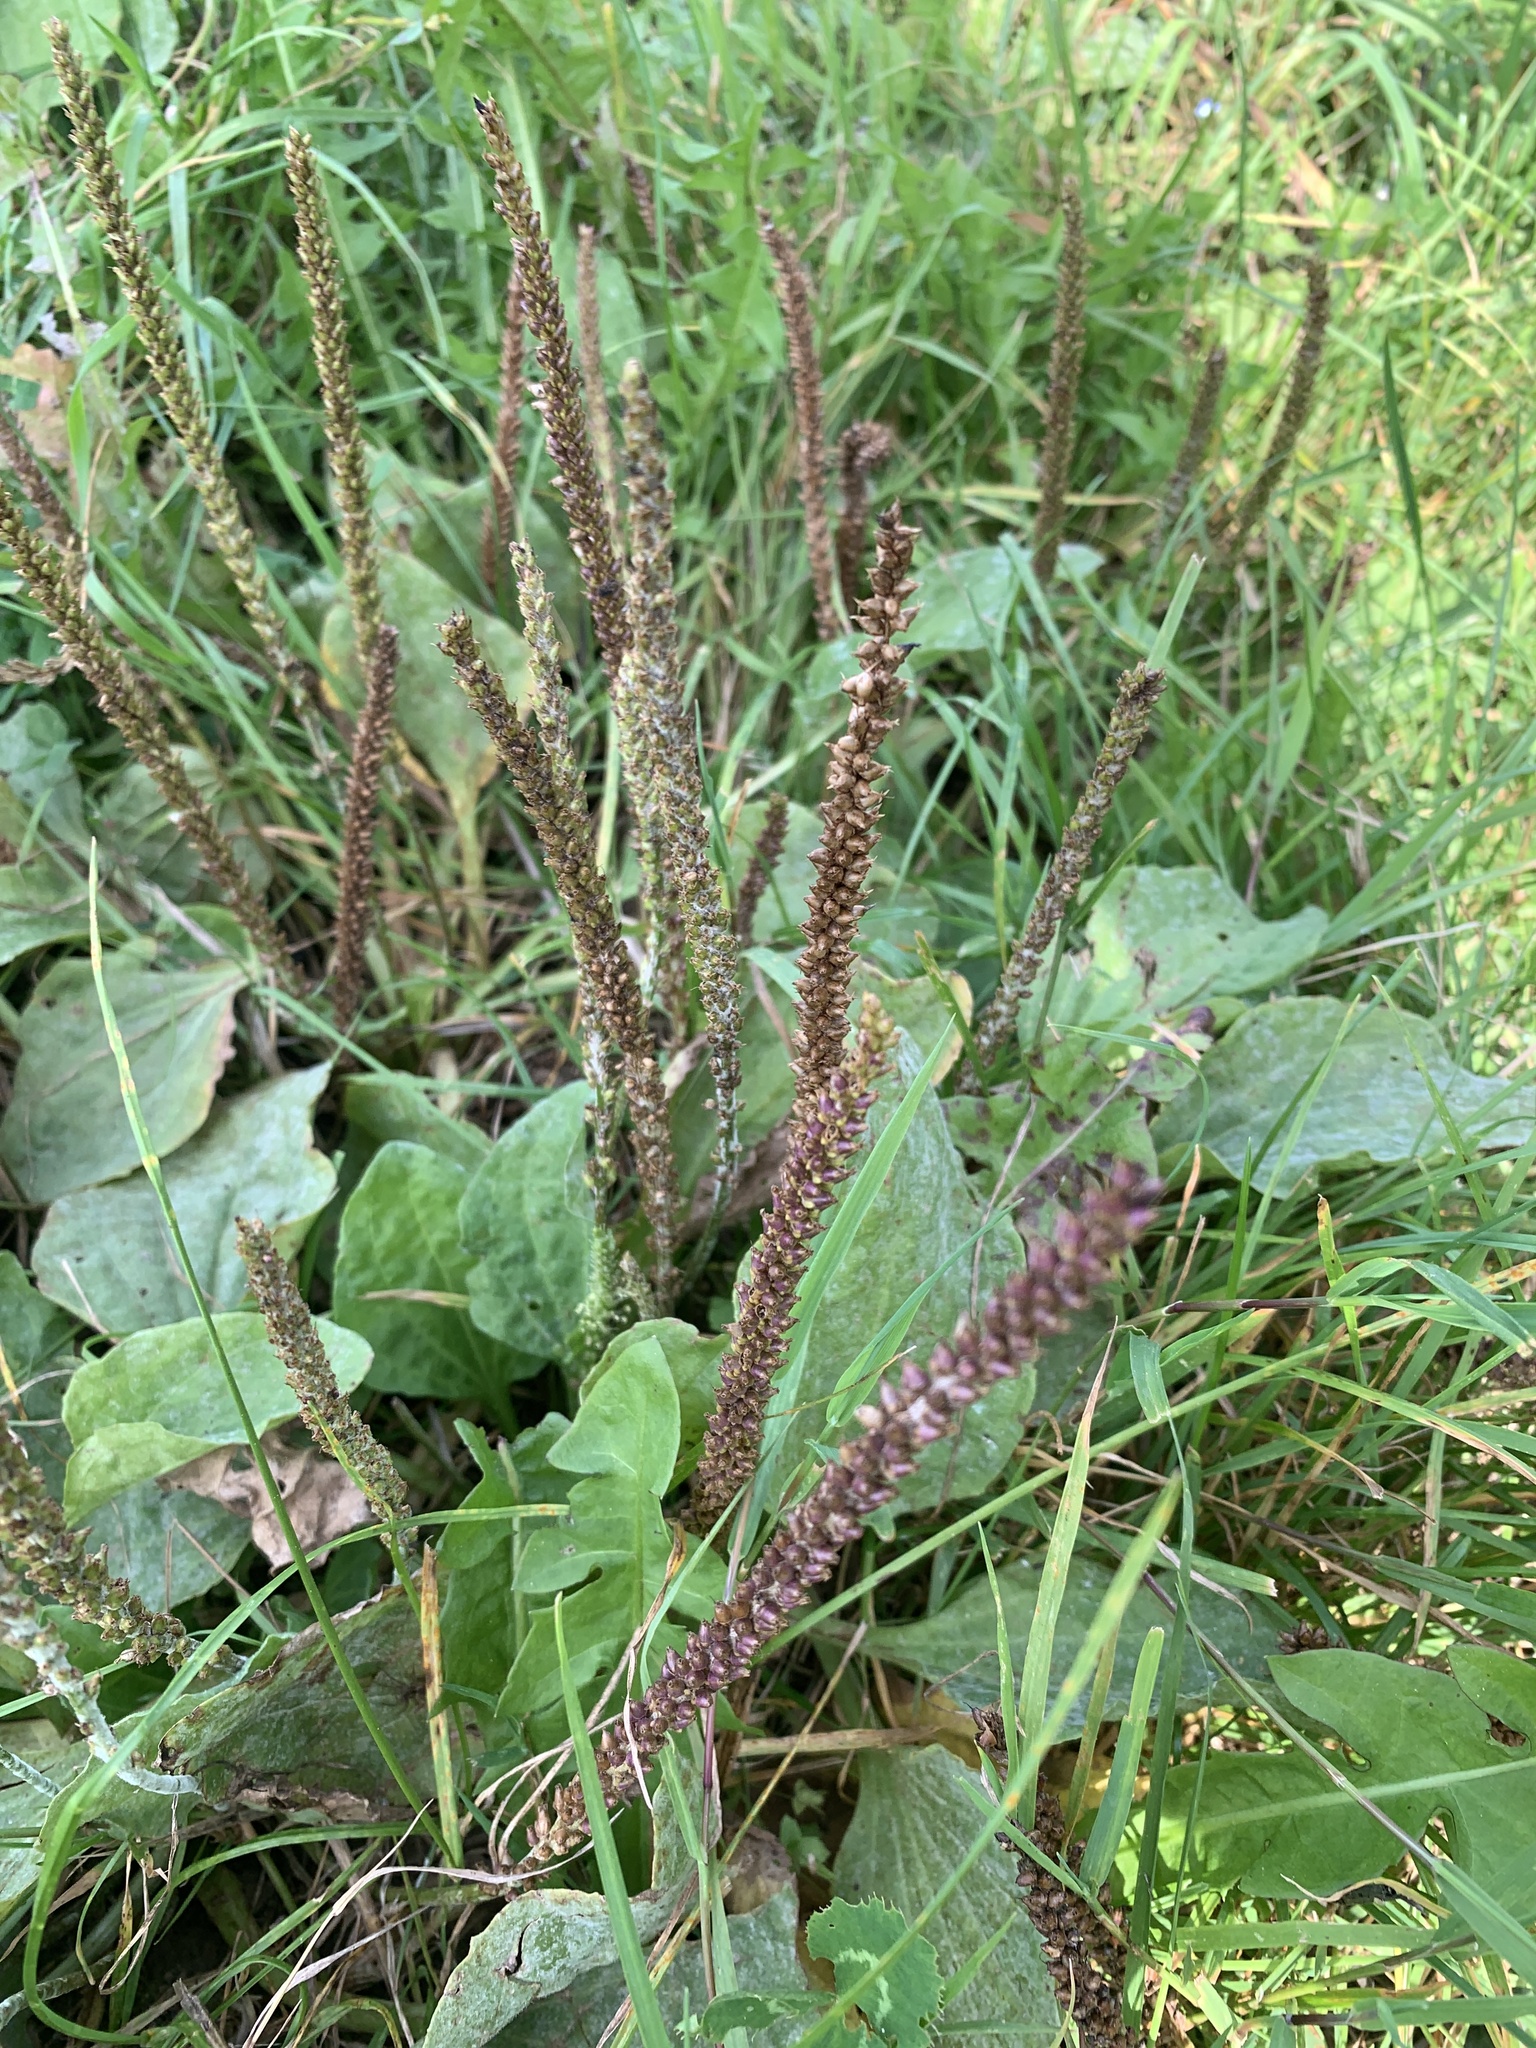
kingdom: Plantae
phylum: Tracheophyta
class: Magnoliopsida
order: Lamiales
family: Plantaginaceae
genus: Plantago
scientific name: Plantago major
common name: Common plantain
